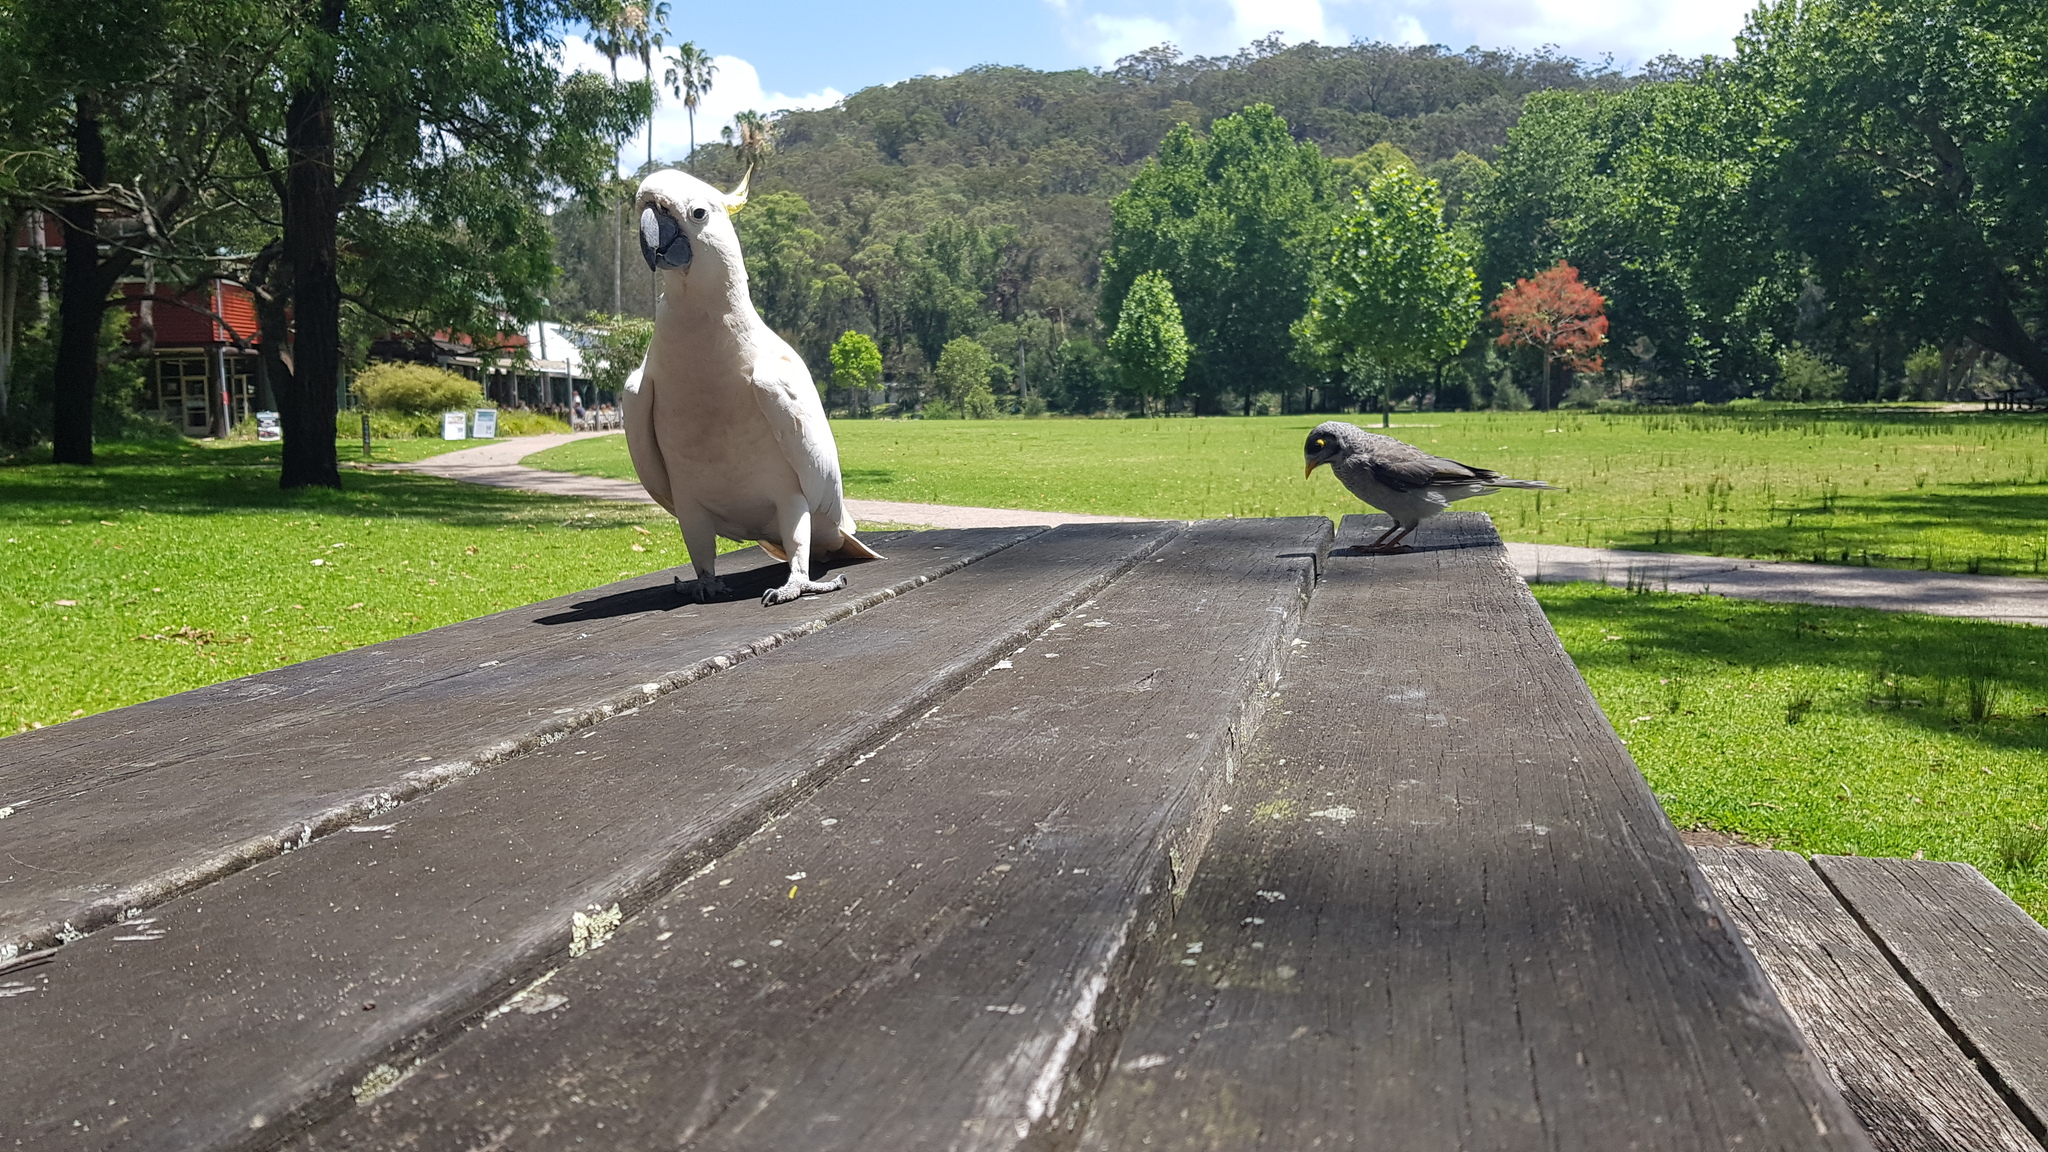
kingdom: Animalia
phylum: Chordata
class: Aves
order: Passeriformes
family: Meliphagidae
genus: Manorina
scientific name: Manorina melanocephala
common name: Noisy miner
